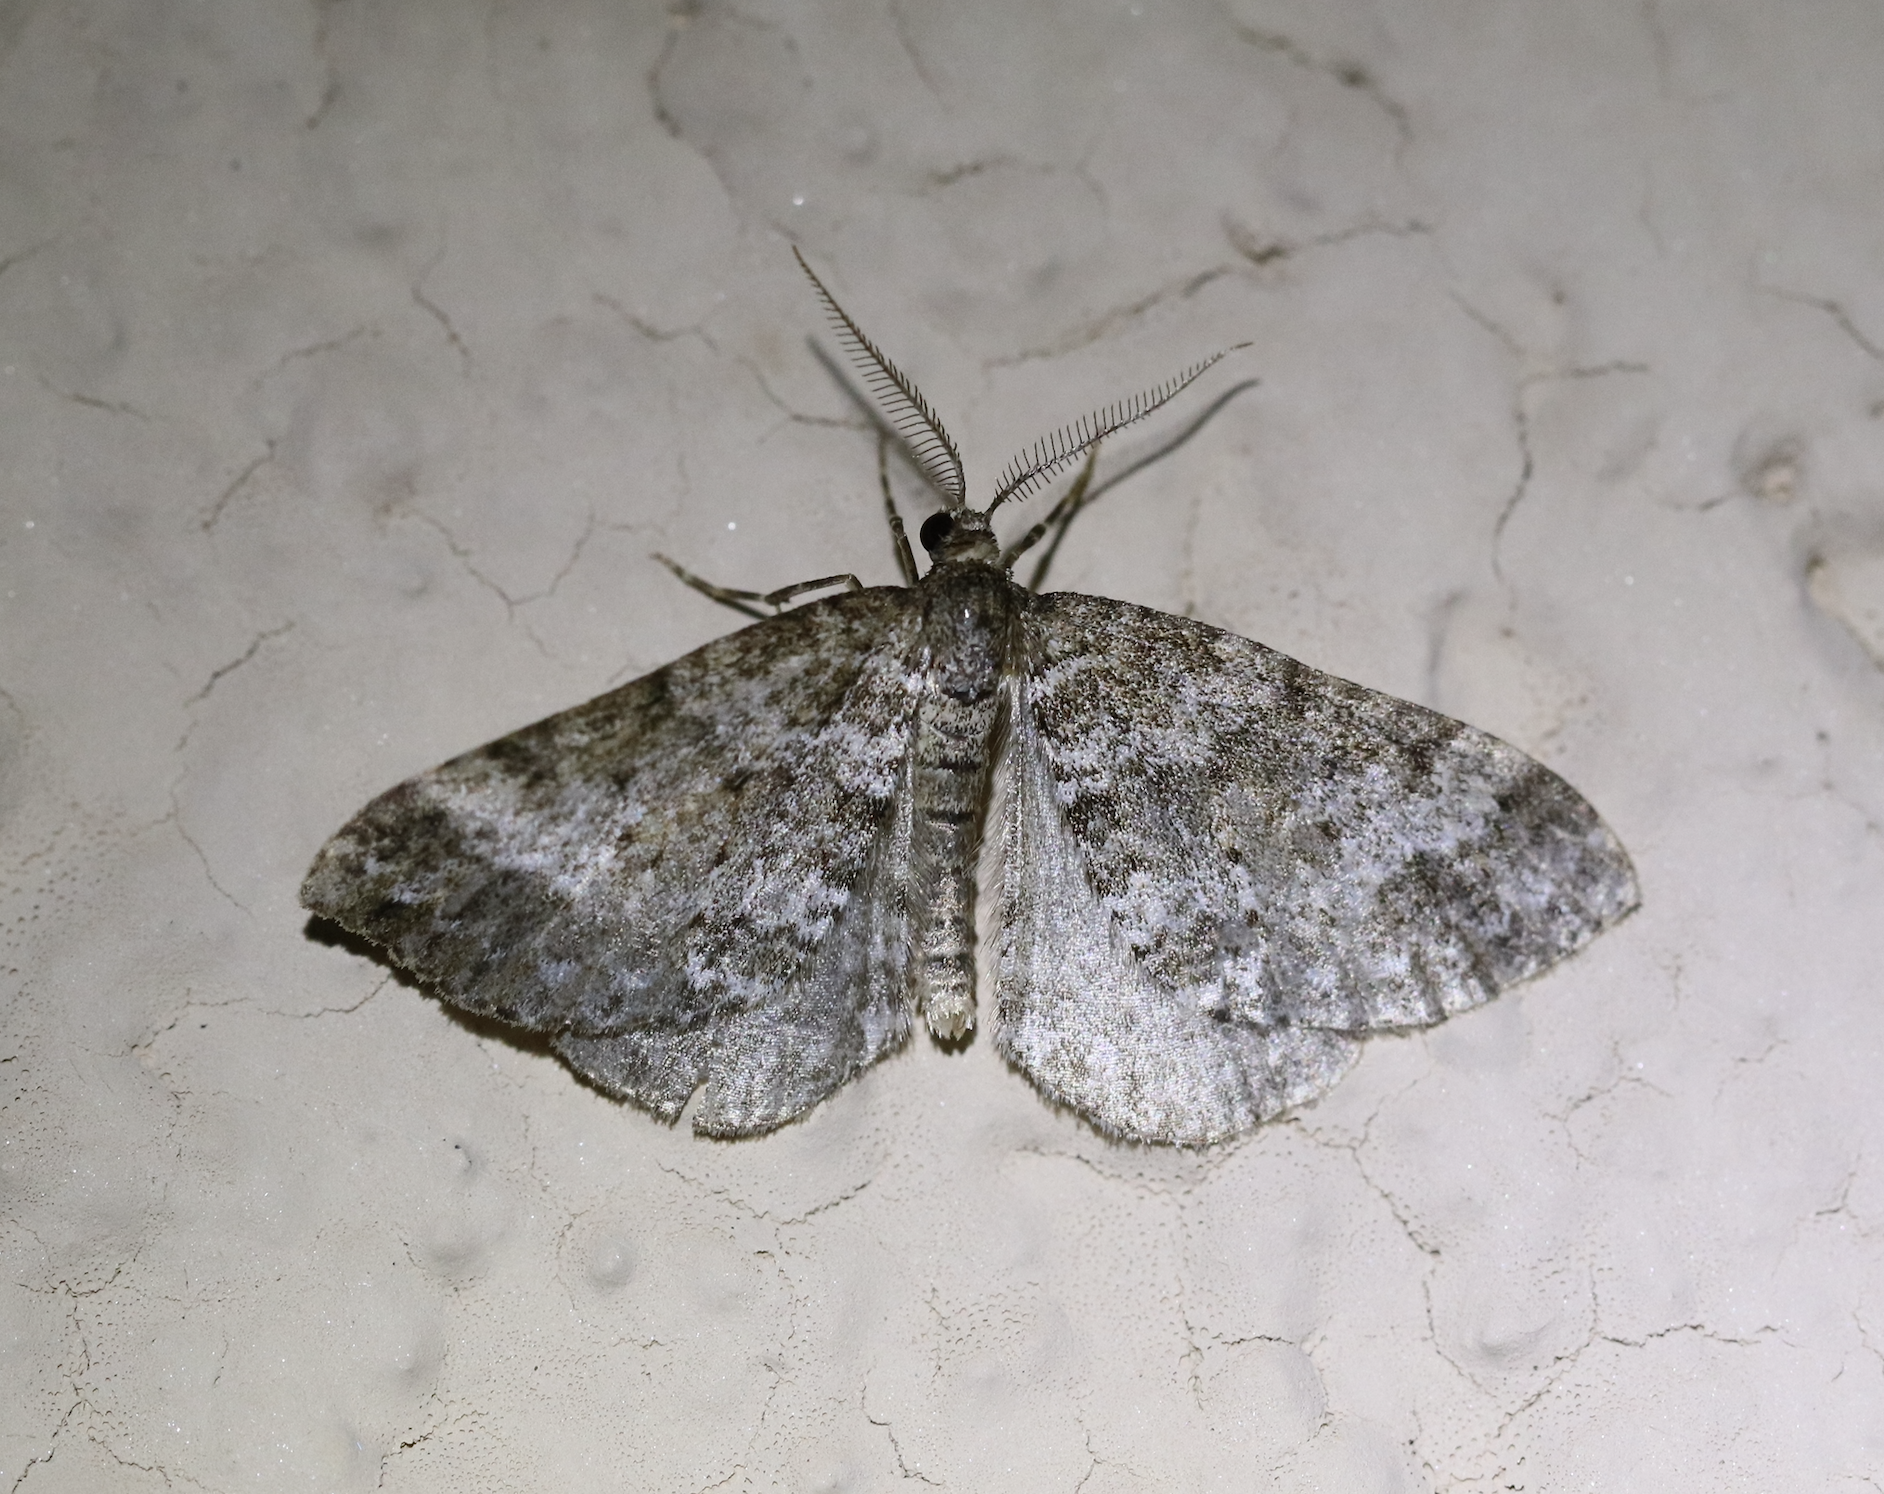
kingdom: Animalia
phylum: Arthropoda
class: Insecta
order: Lepidoptera
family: Geometridae
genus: Perizoma
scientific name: Perizoma didymata
